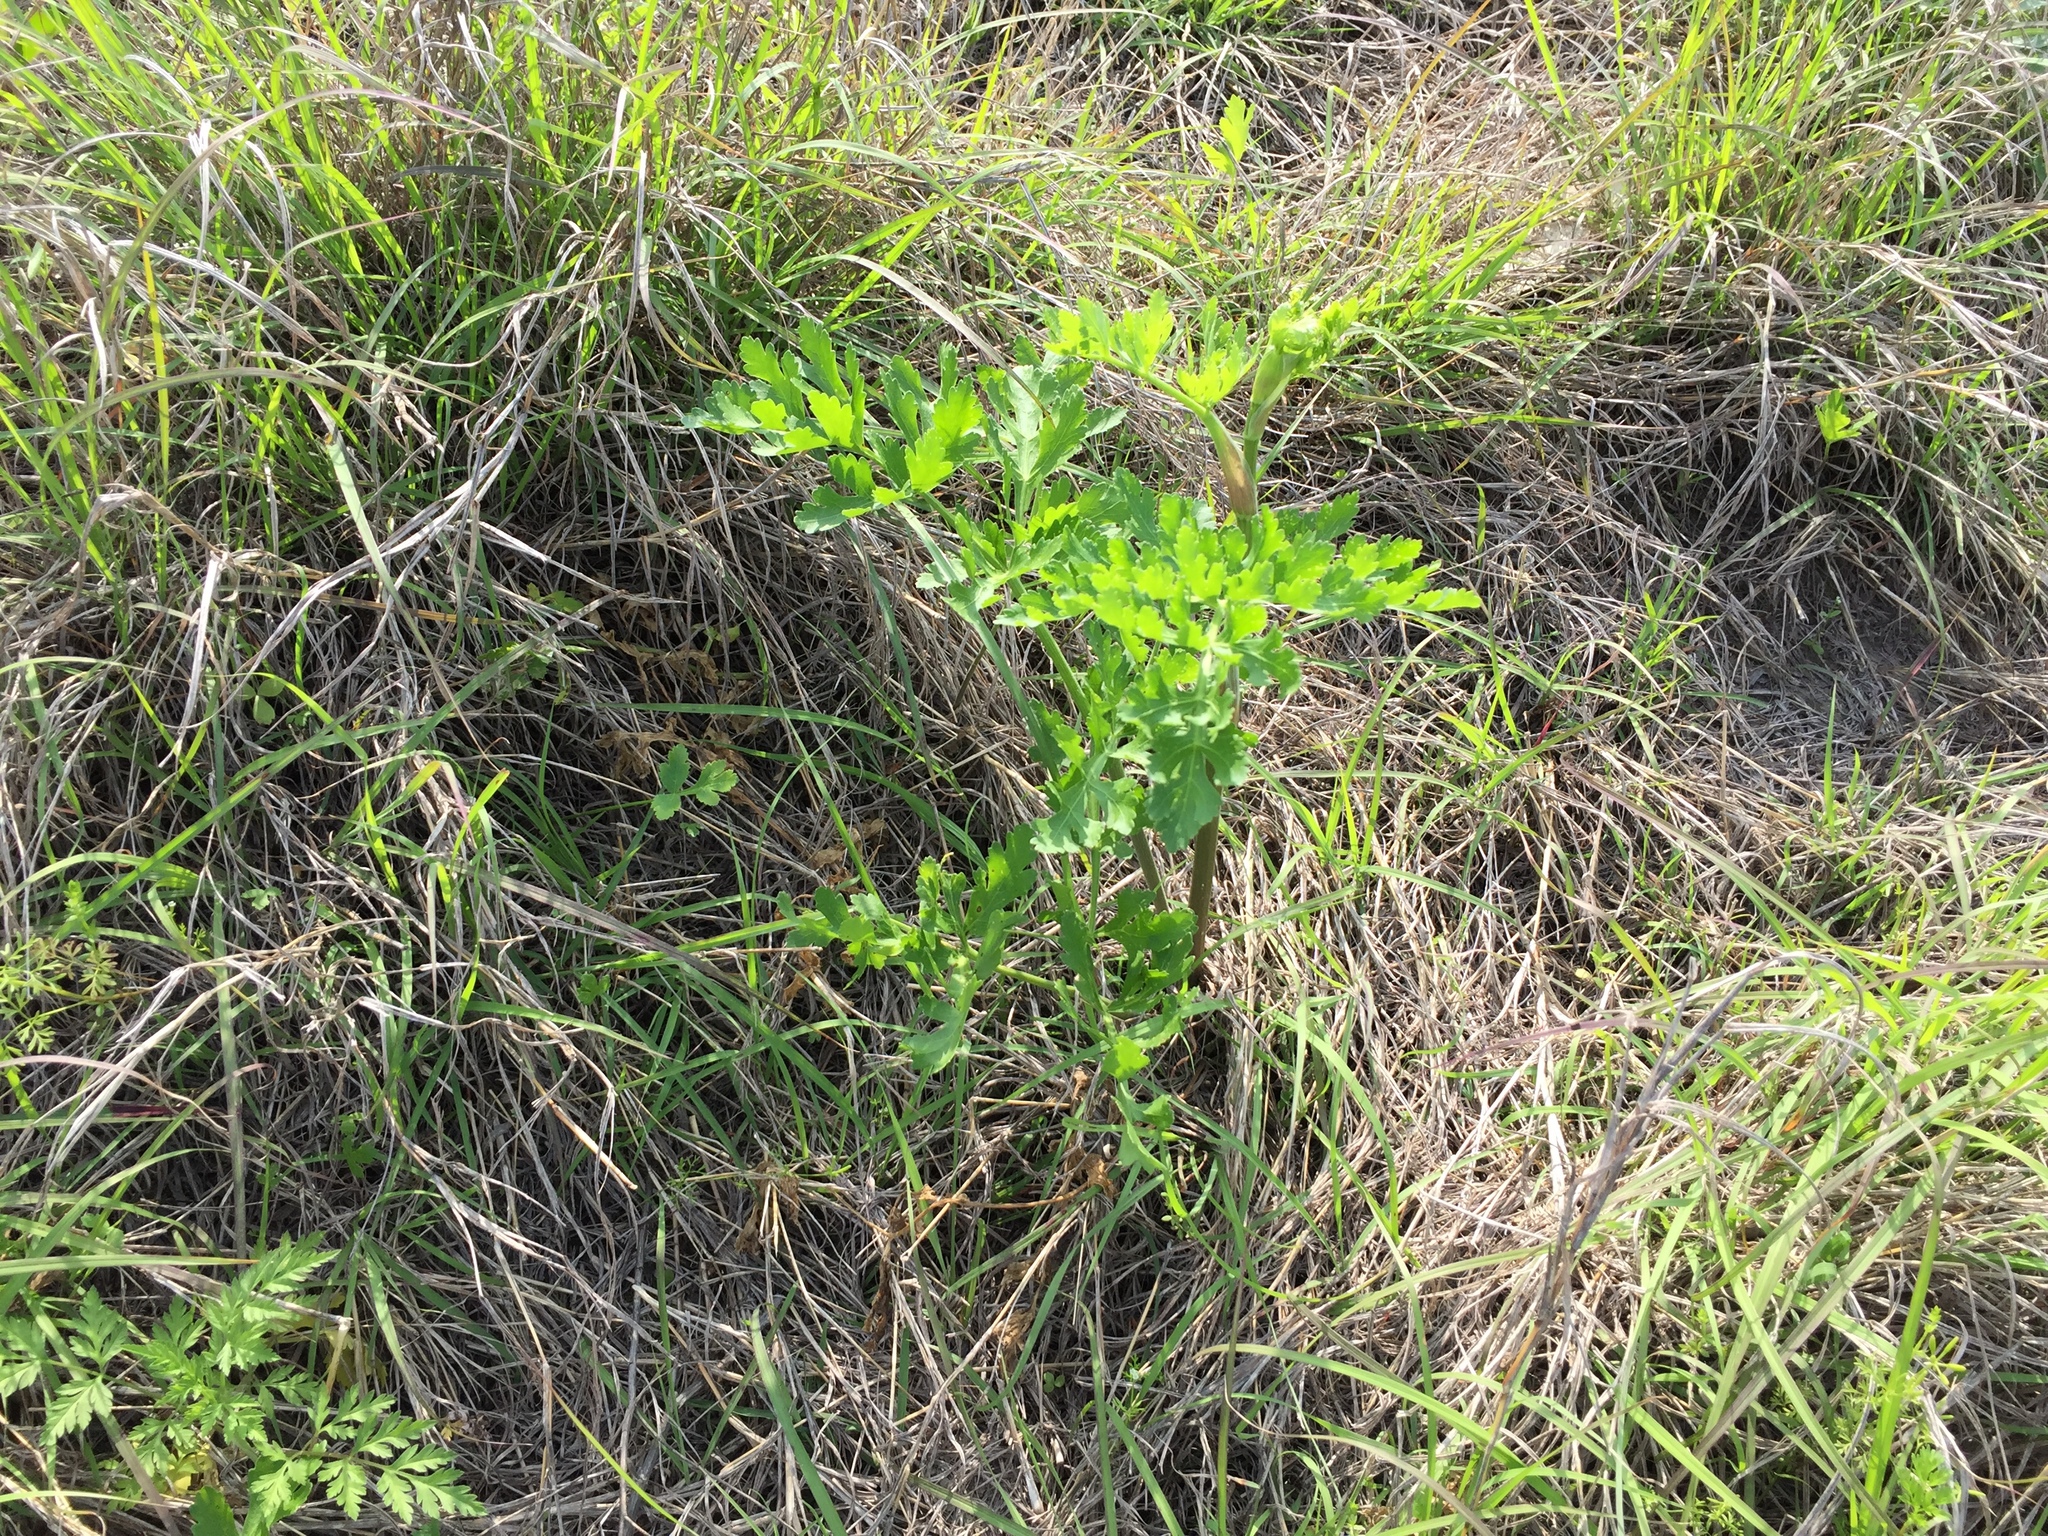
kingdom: Plantae
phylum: Tracheophyta
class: Magnoliopsida
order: Apiales
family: Apiaceae
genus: Polytaenia
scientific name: Polytaenia texana
